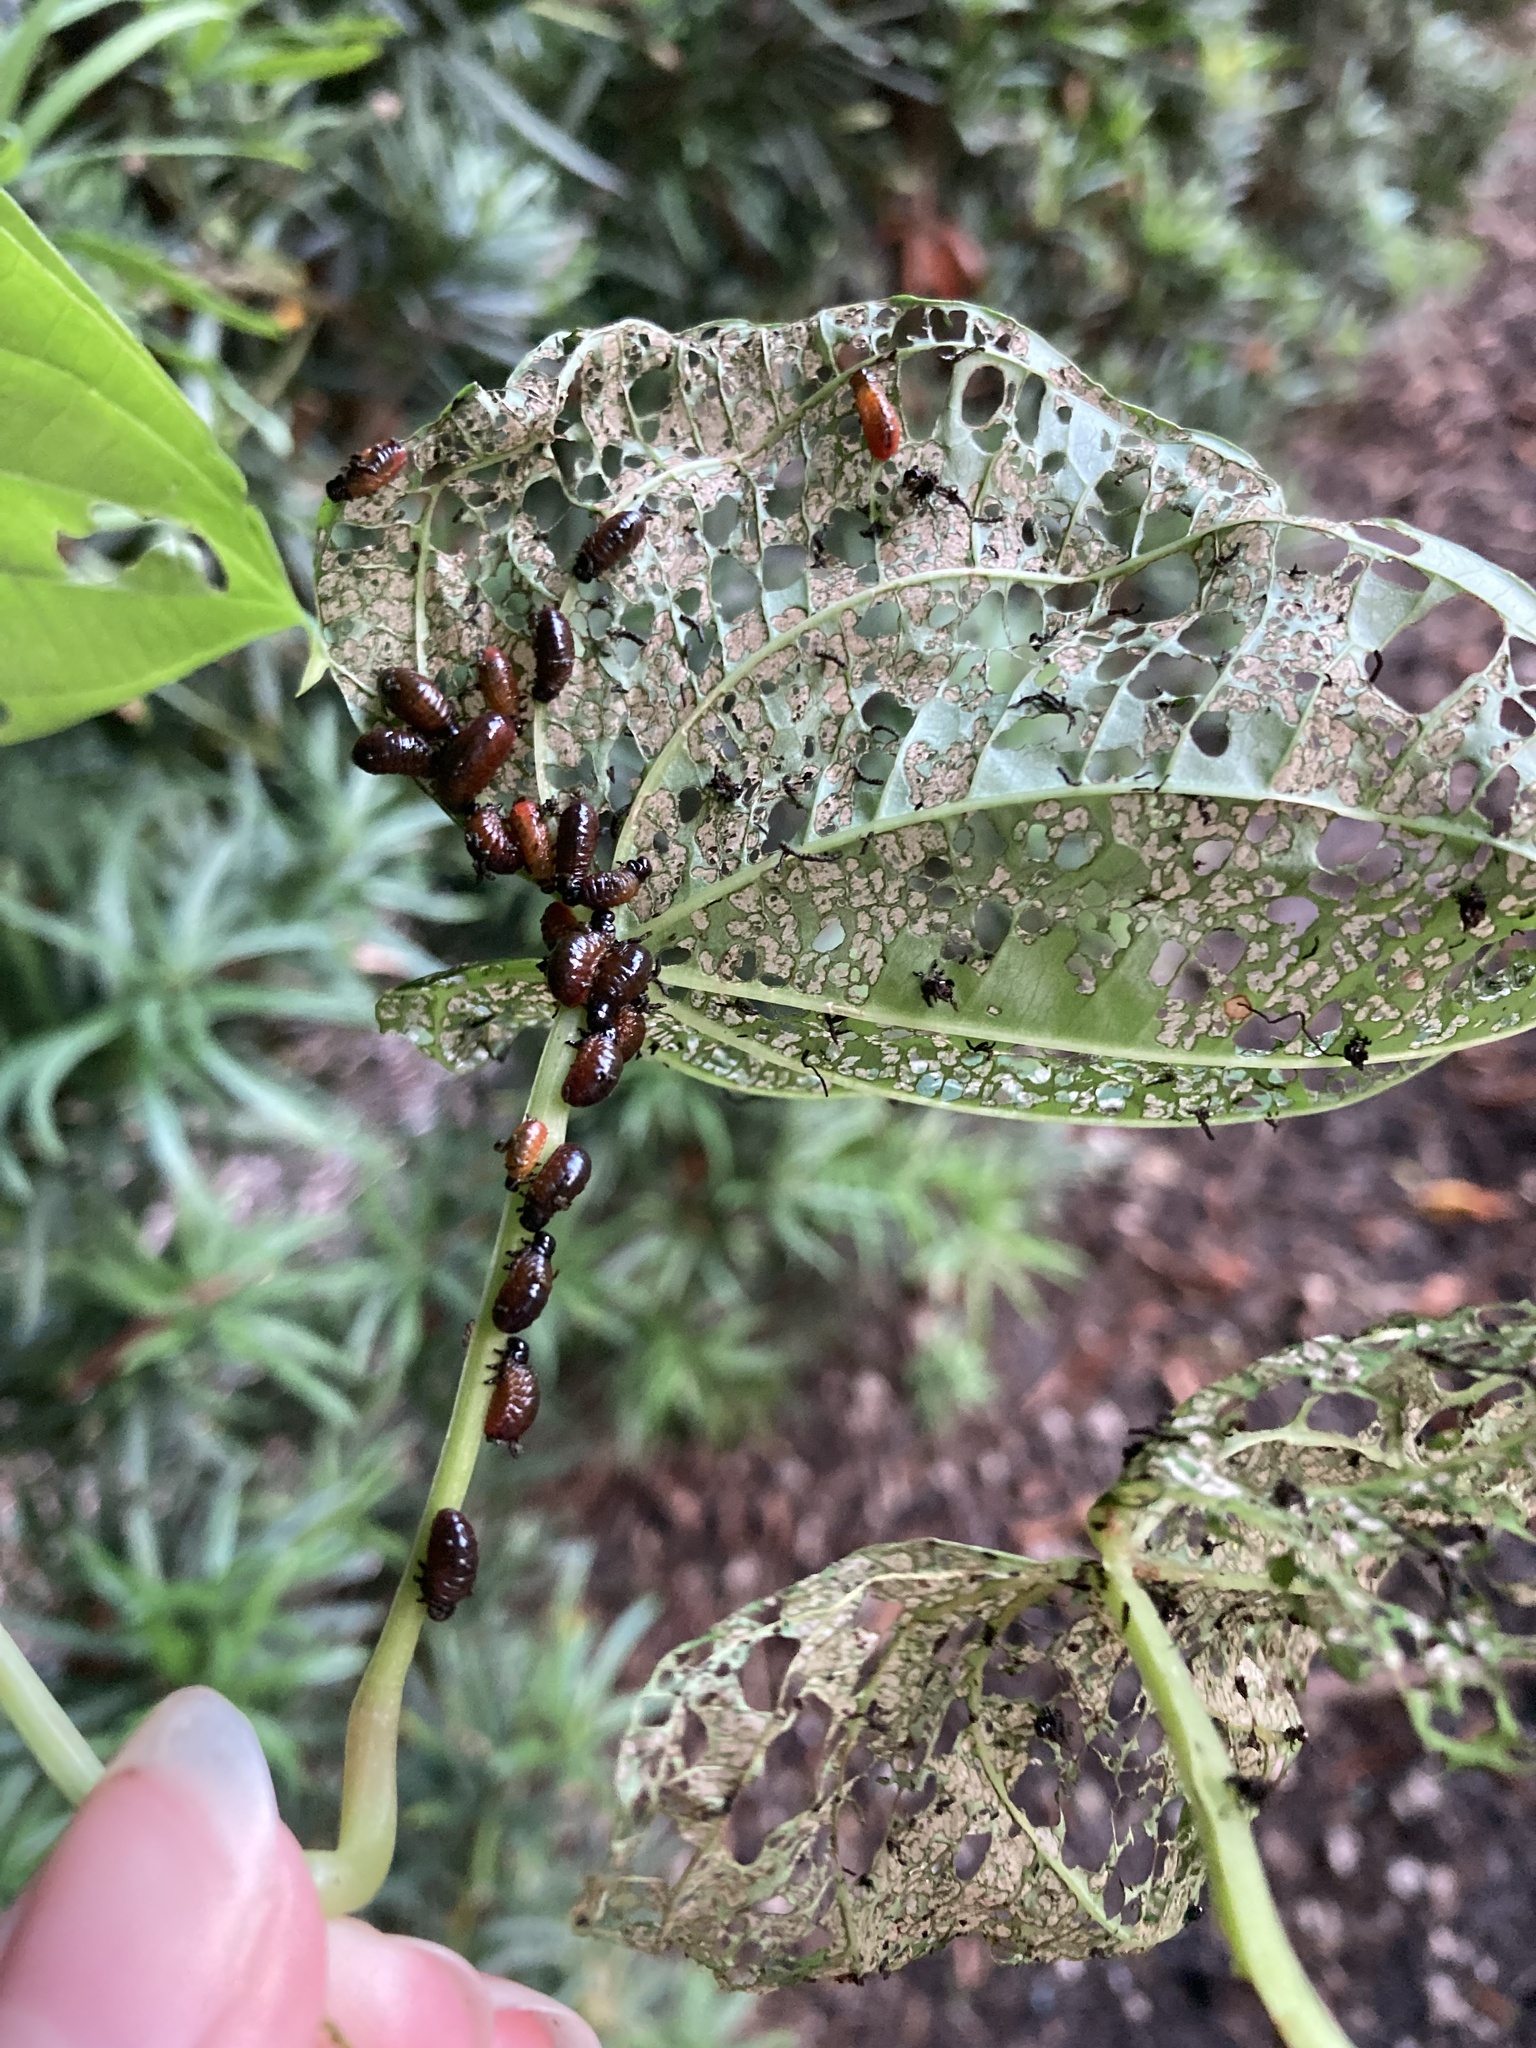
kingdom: Animalia
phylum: Arthropoda
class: Insecta
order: Coleoptera
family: Chrysomelidae
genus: Lilioceris
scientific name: Lilioceris cheni
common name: Leaf beetle
